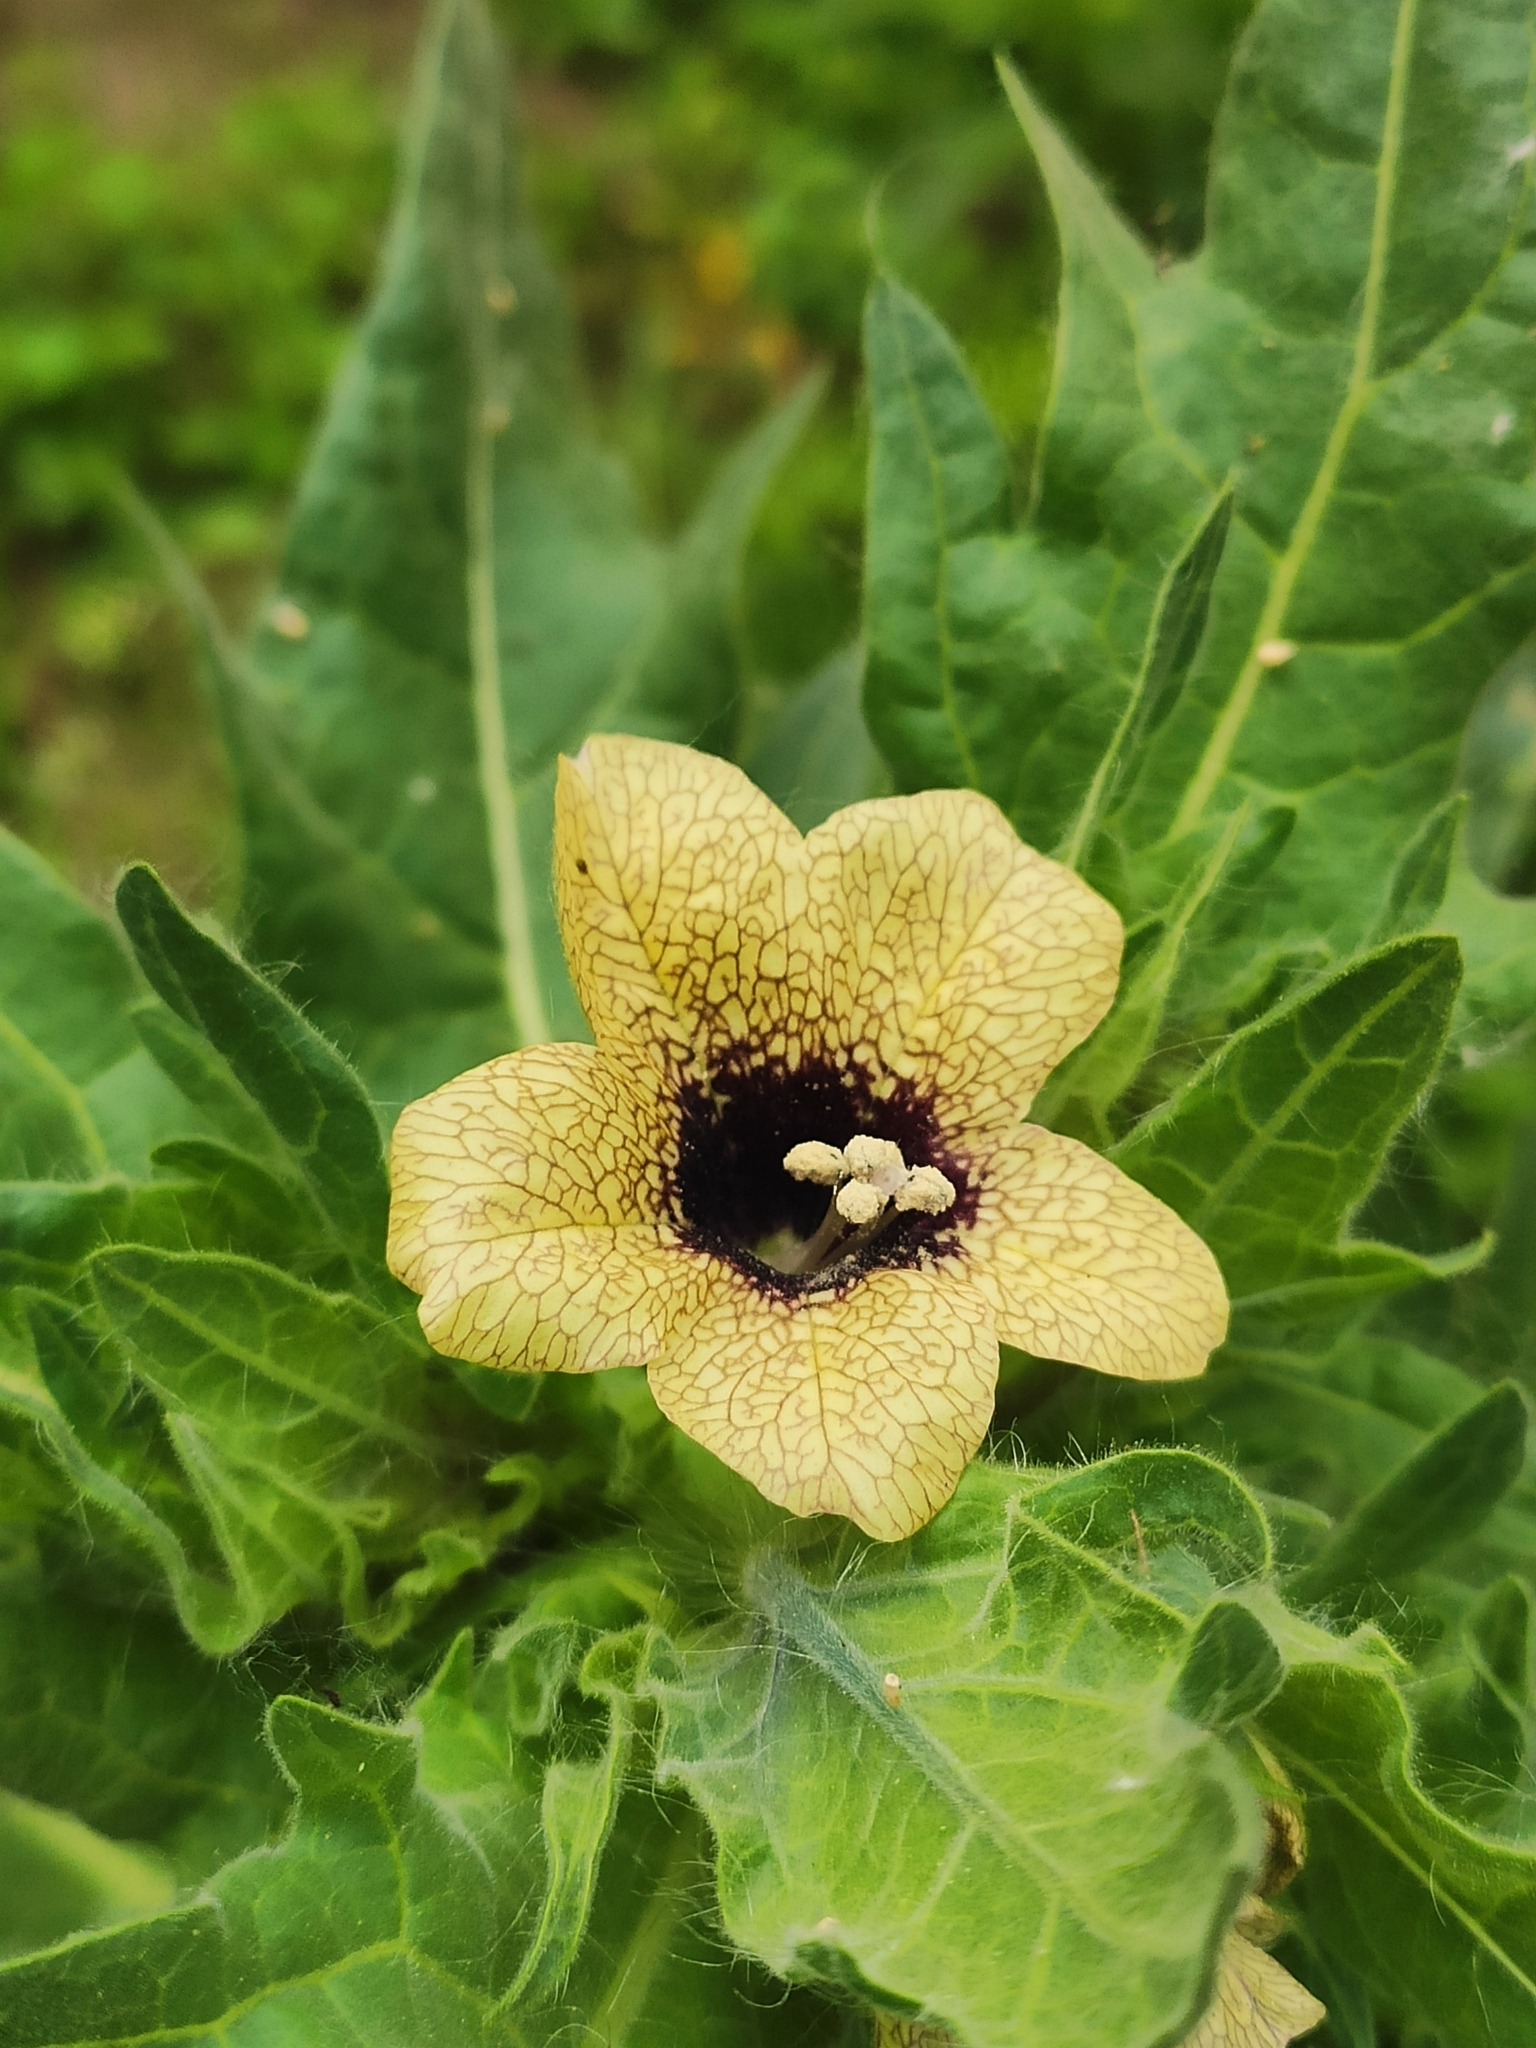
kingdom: Plantae
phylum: Tracheophyta
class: Magnoliopsida
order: Solanales
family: Solanaceae
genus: Hyoscyamus
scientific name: Hyoscyamus niger
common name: Henbane
